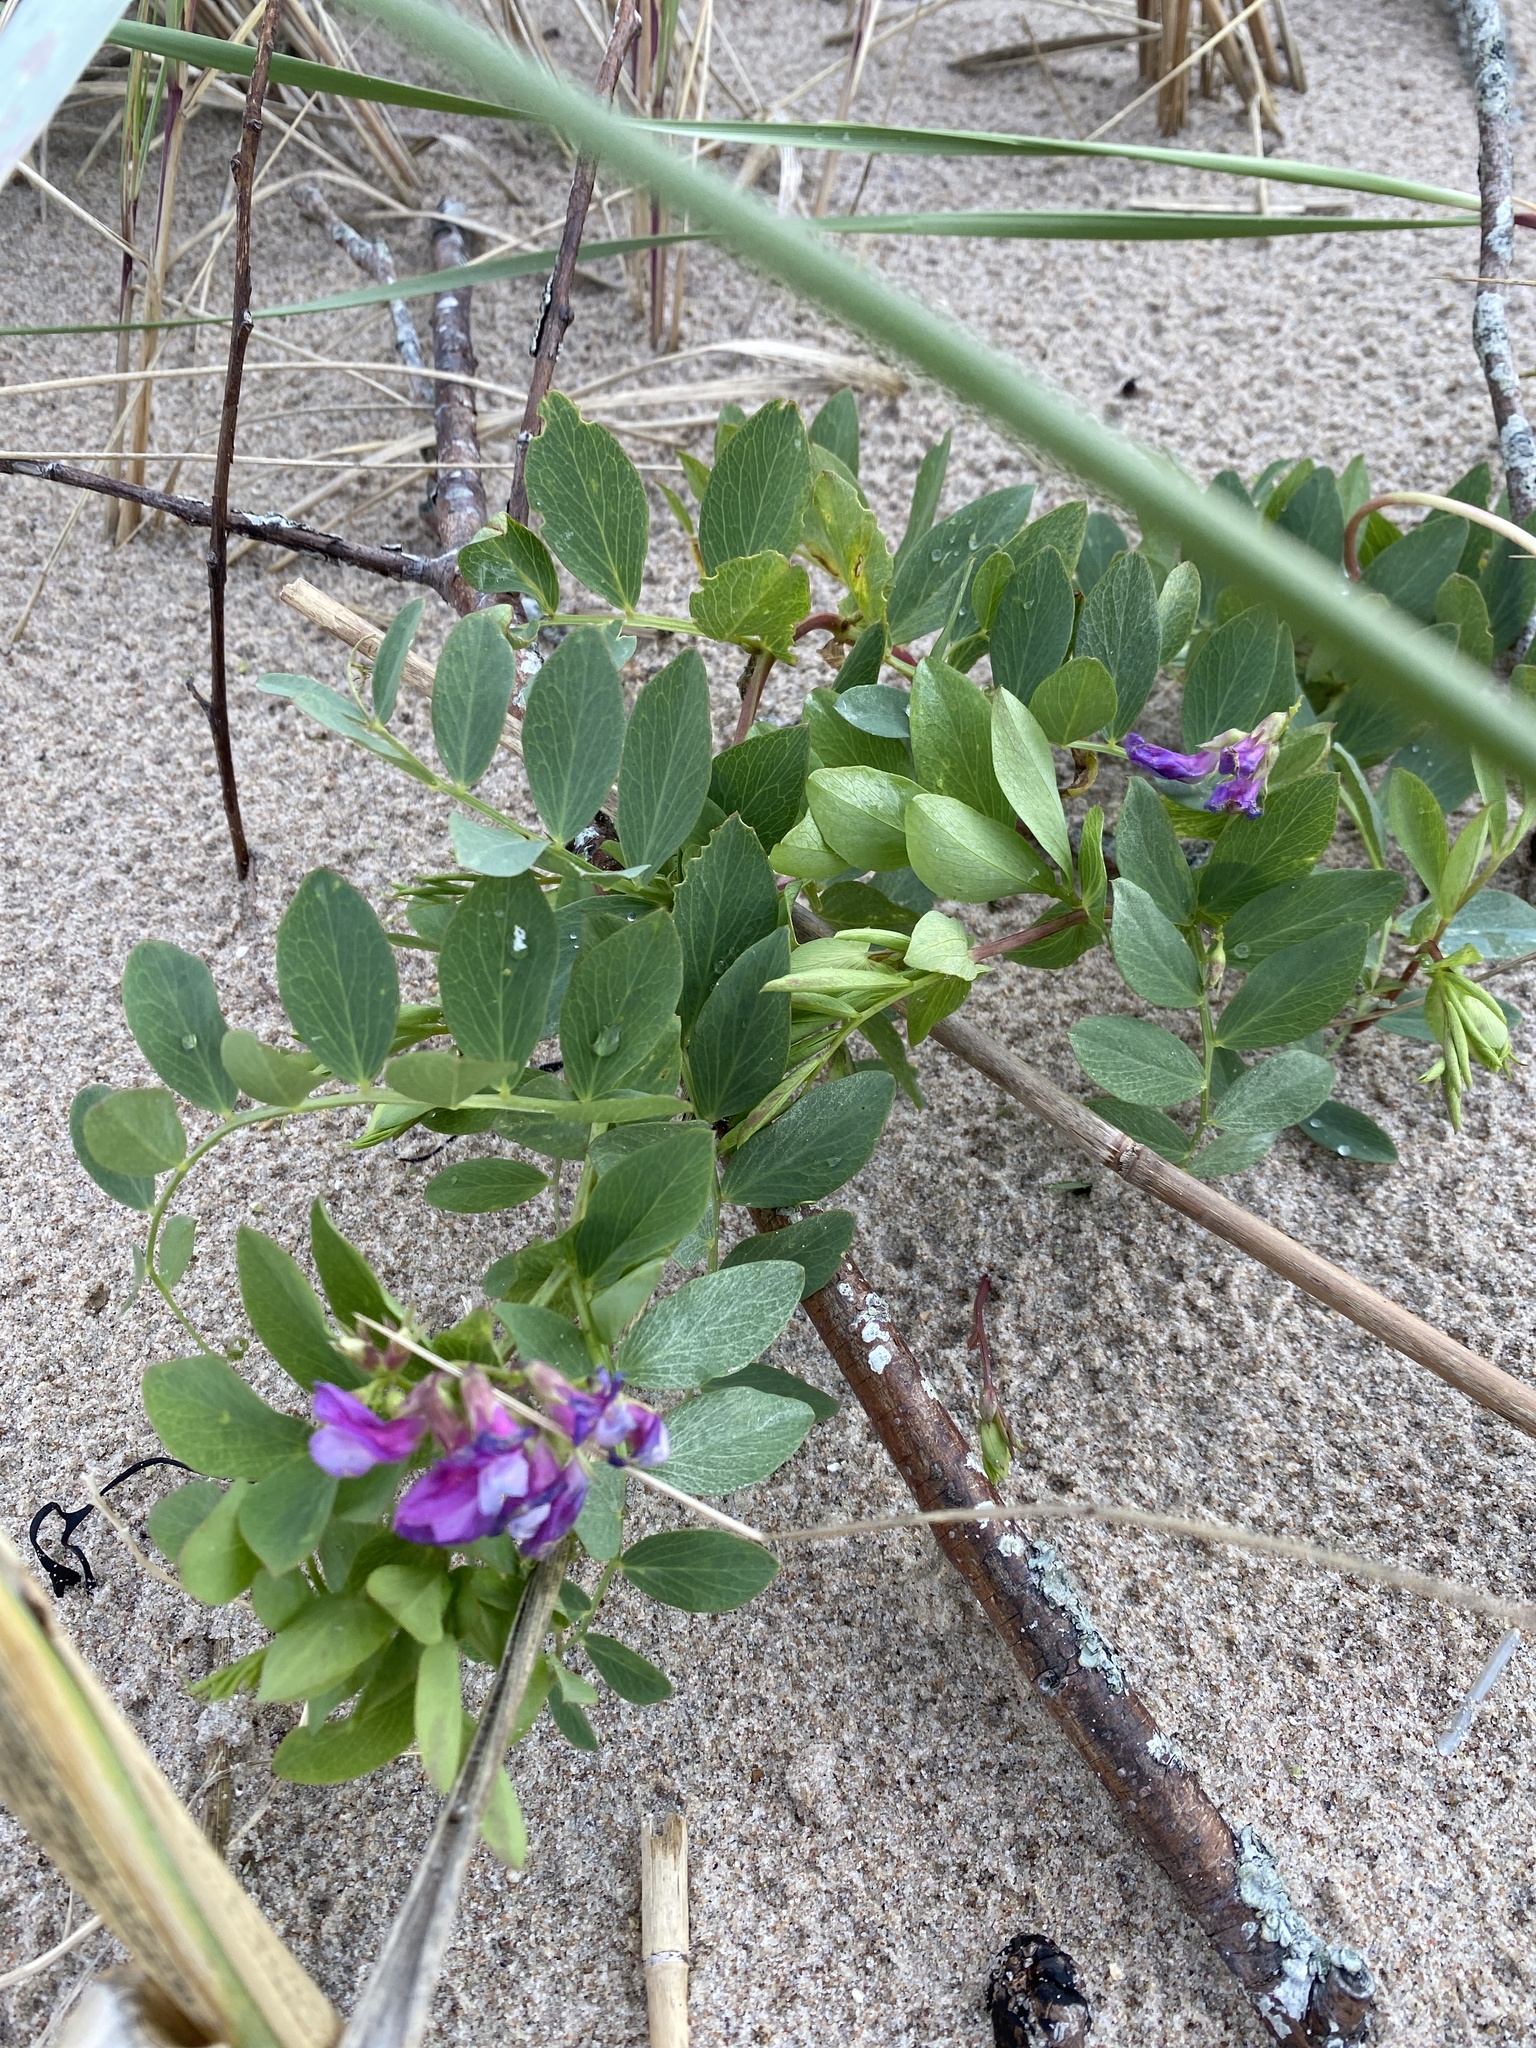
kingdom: Plantae
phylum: Tracheophyta
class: Magnoliopsida
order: Fabales
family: Fabaceae
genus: Lathyrus
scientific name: Lathyrus japonicus
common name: Sea pea
